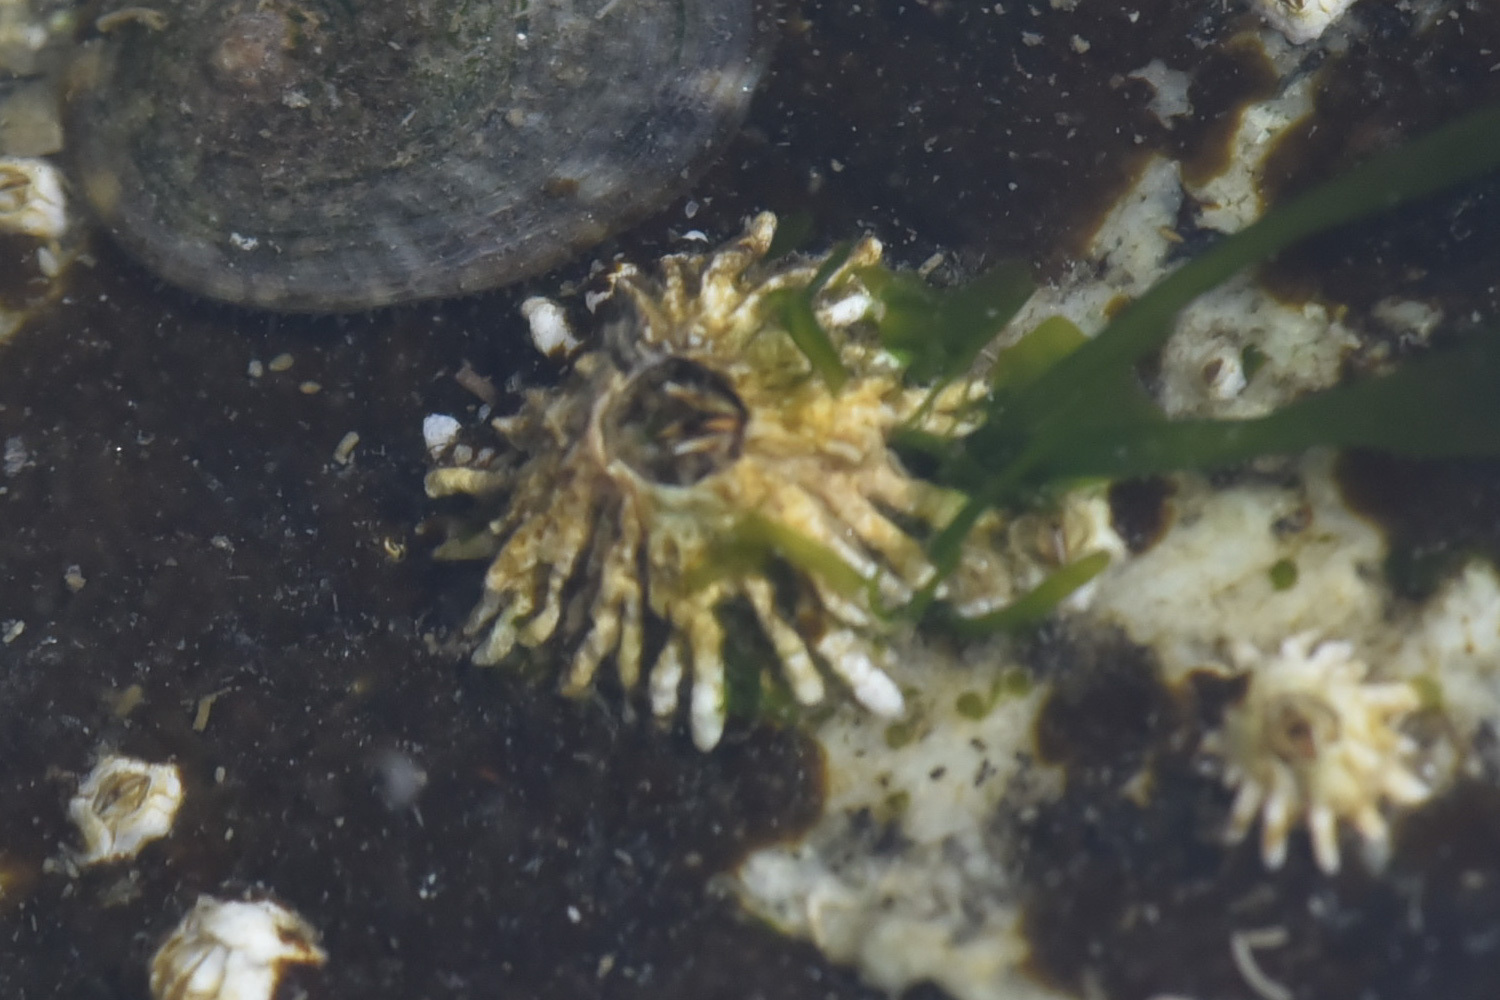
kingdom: Animalia
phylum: Arthropoda
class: Maxillopoda
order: Sessilia
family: Archaeobalanidae
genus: Semibalanus
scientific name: Semibalanus cariosus
